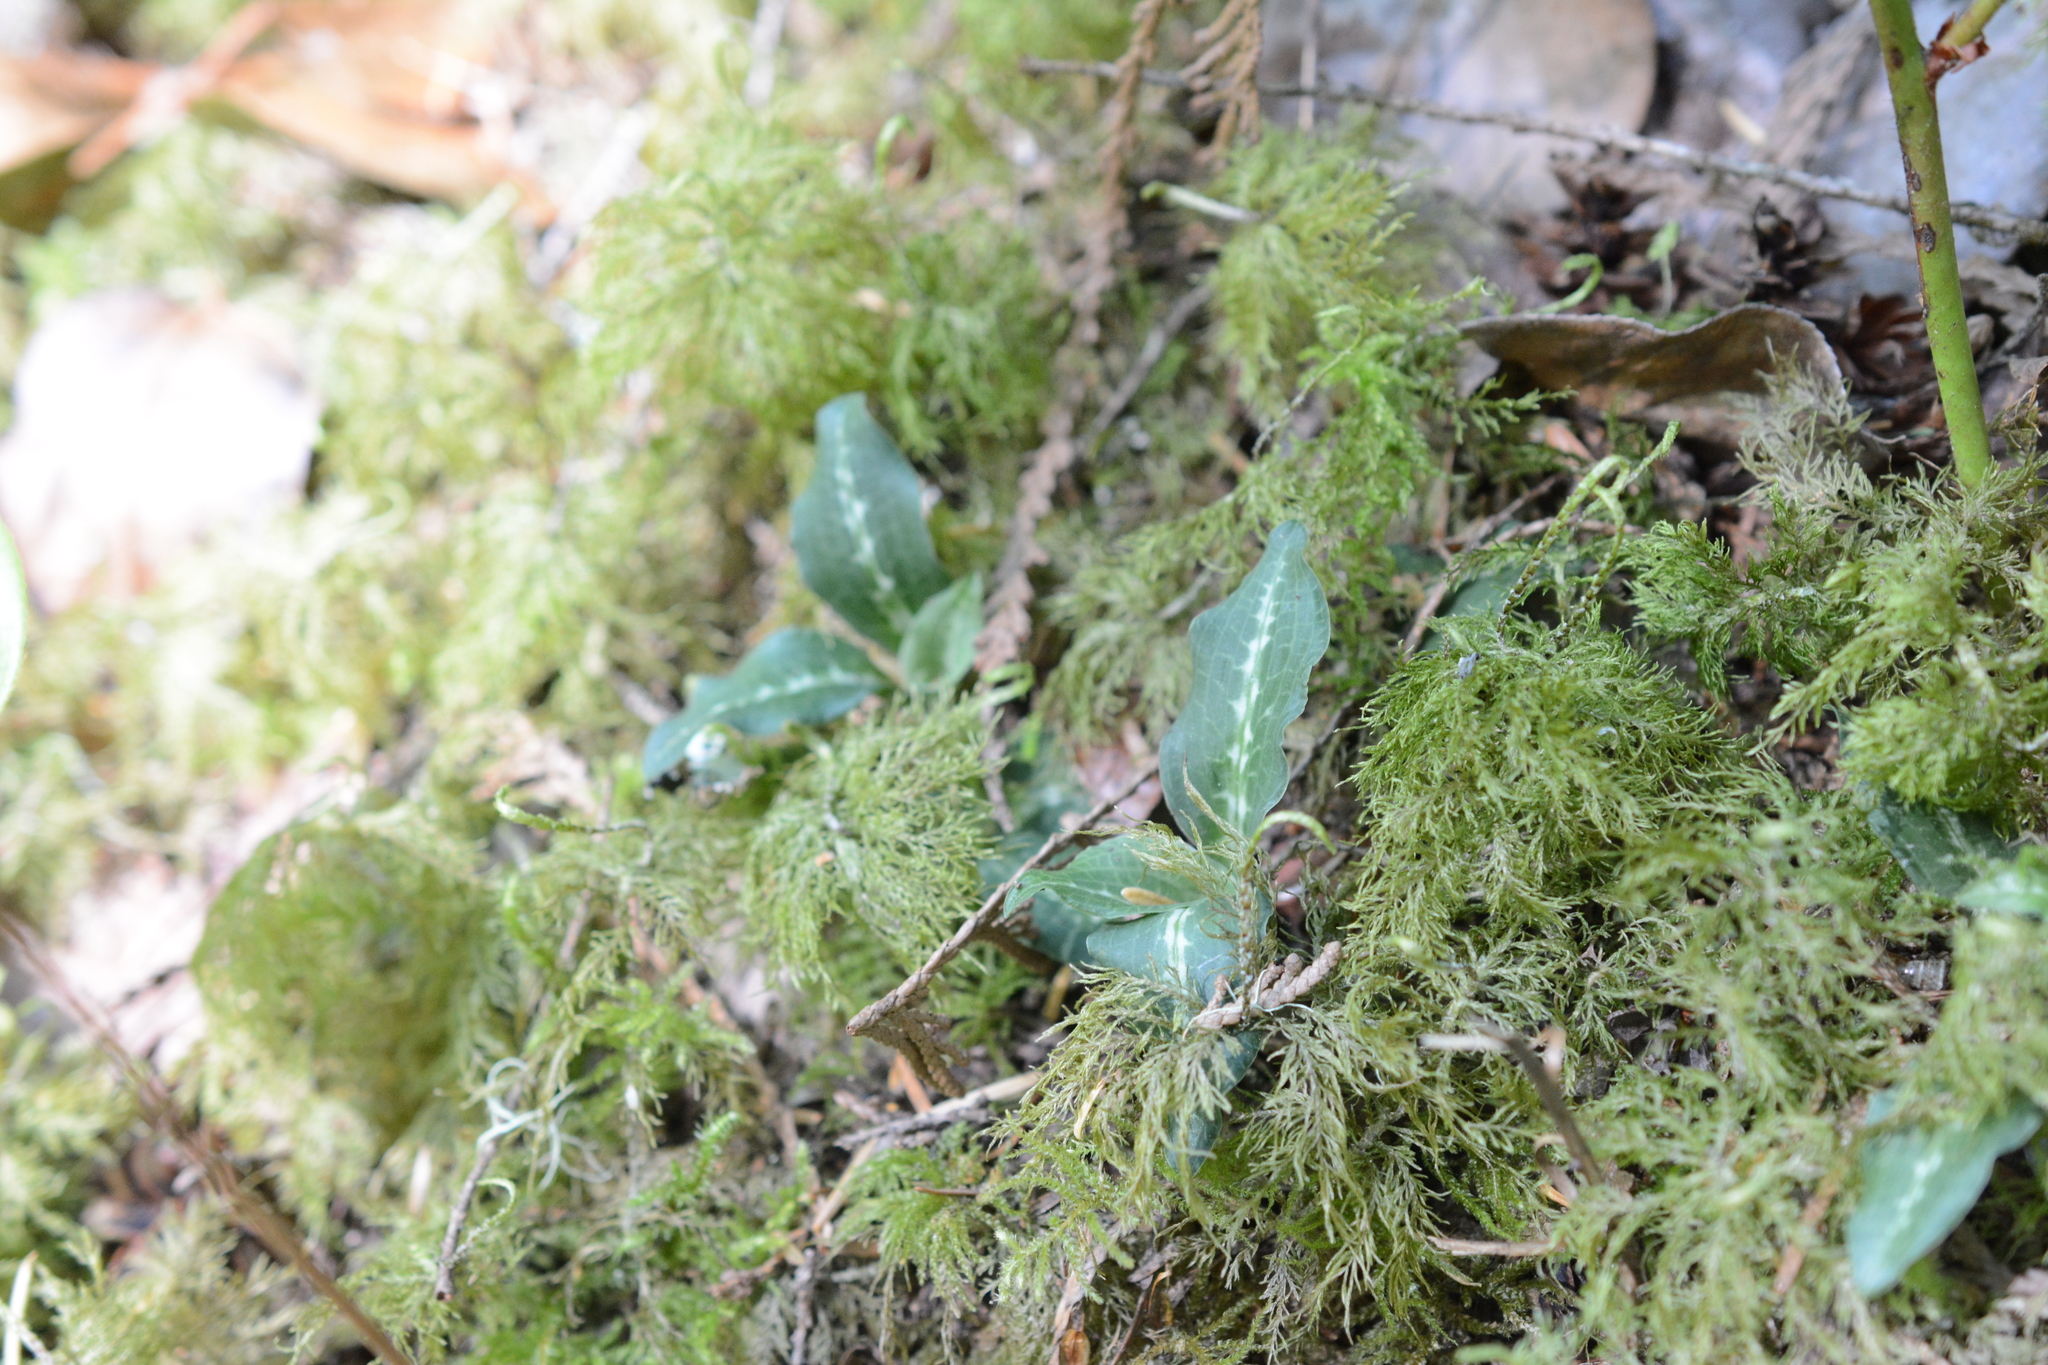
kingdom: Plantae
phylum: Tracheophyta
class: Liliopsida
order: Asparagales
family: Orchidaceae
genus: Goodyera
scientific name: Goodyera oblongifolia
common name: Giant rattlesnake-plantain
